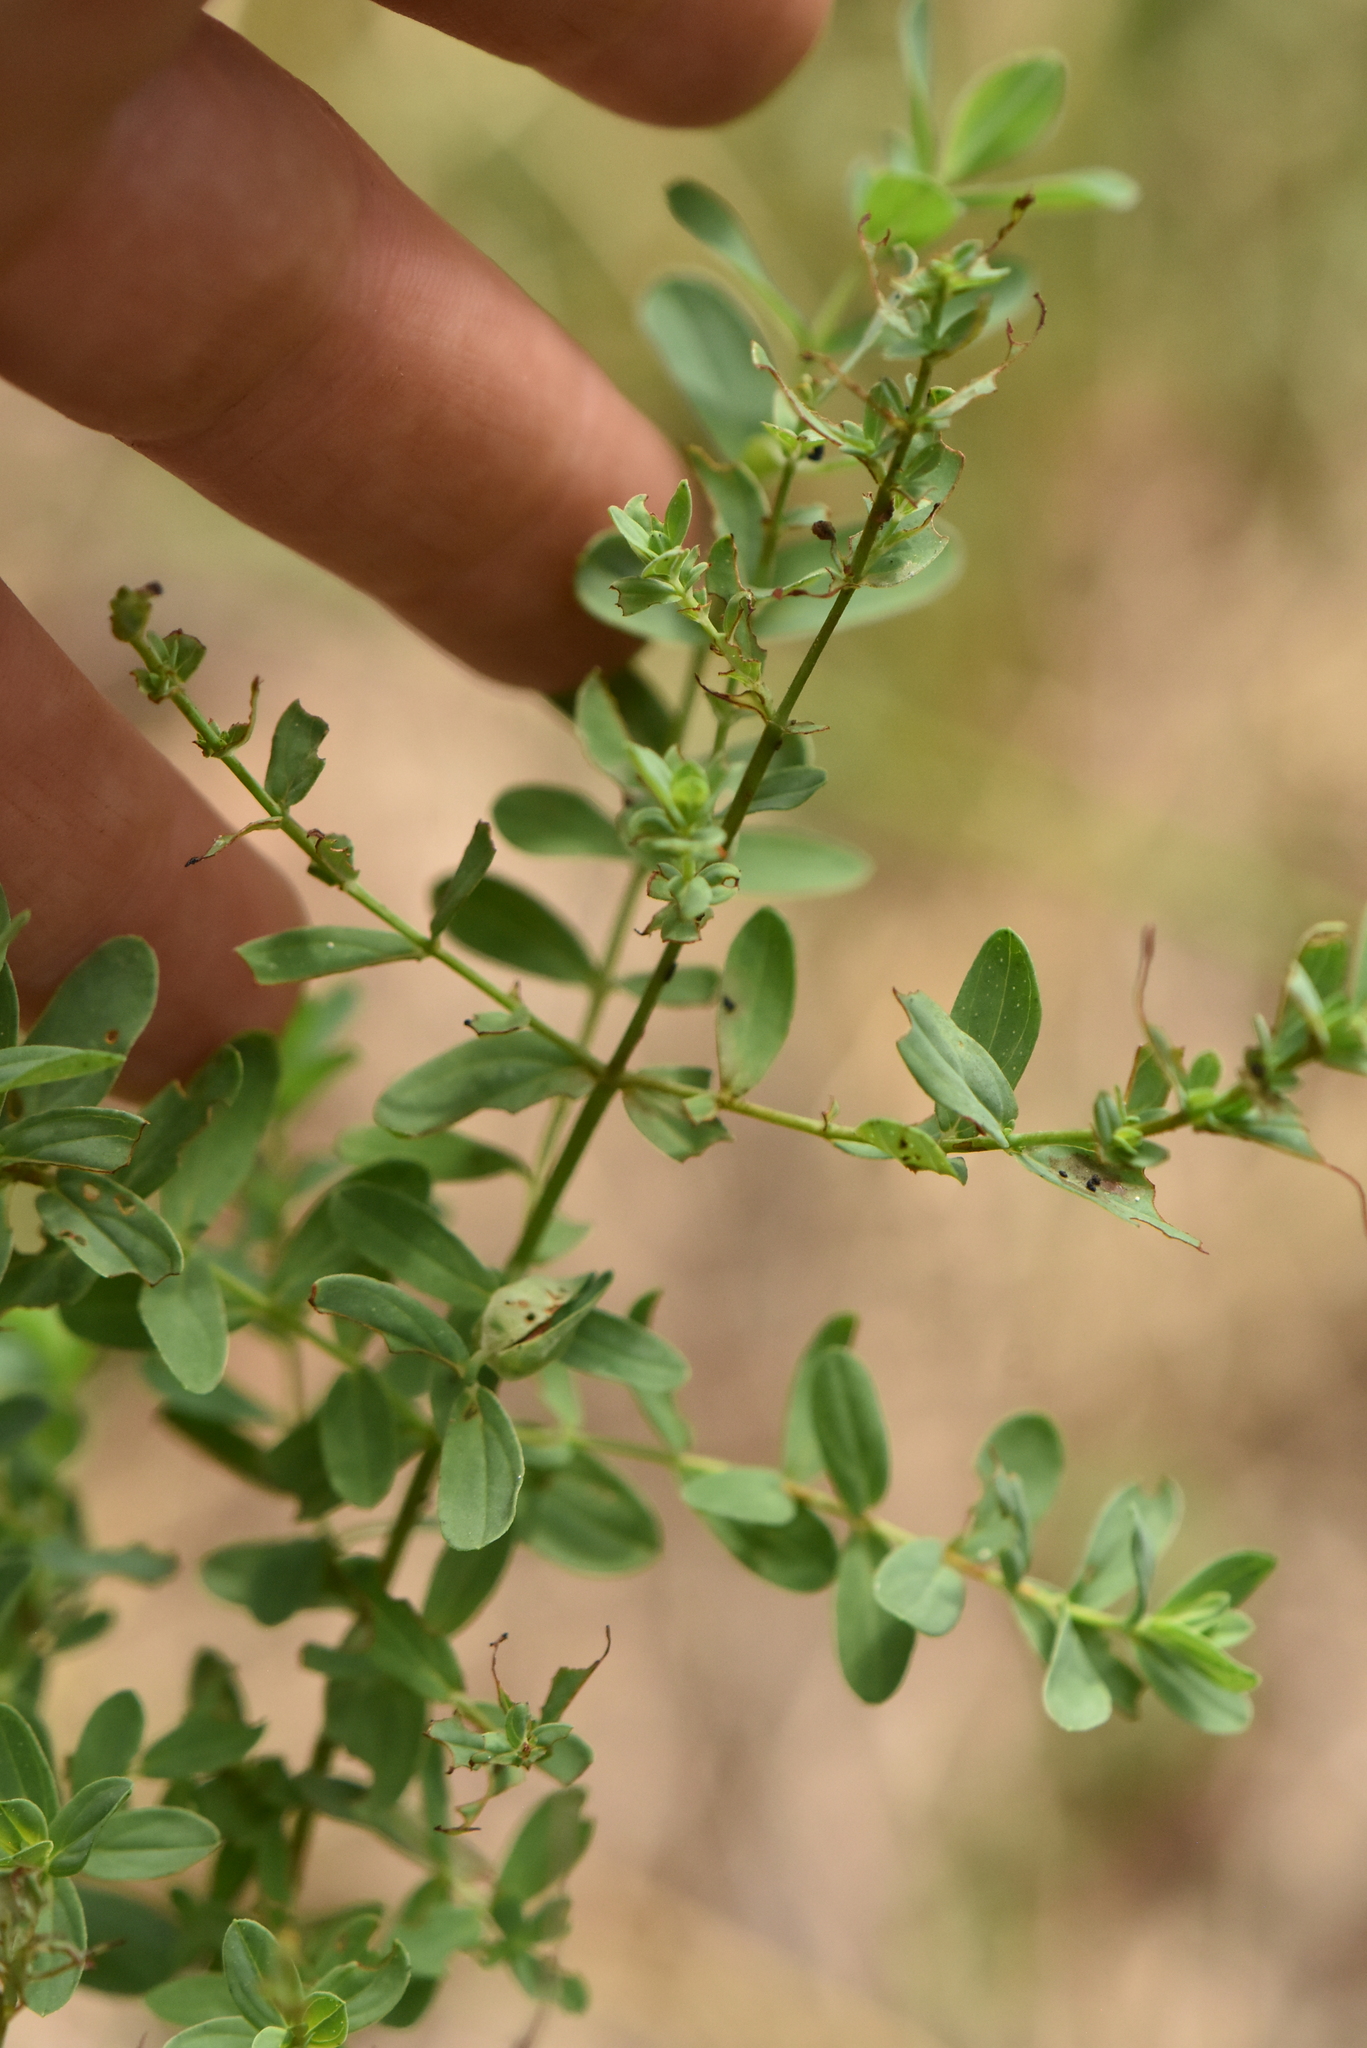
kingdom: Plantae
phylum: Tracheophyta
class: Magnoliopsida
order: Malpighiales
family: Hypericaceae
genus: Hypericum
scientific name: Hypericum perforatum
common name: Common st. johnswort
